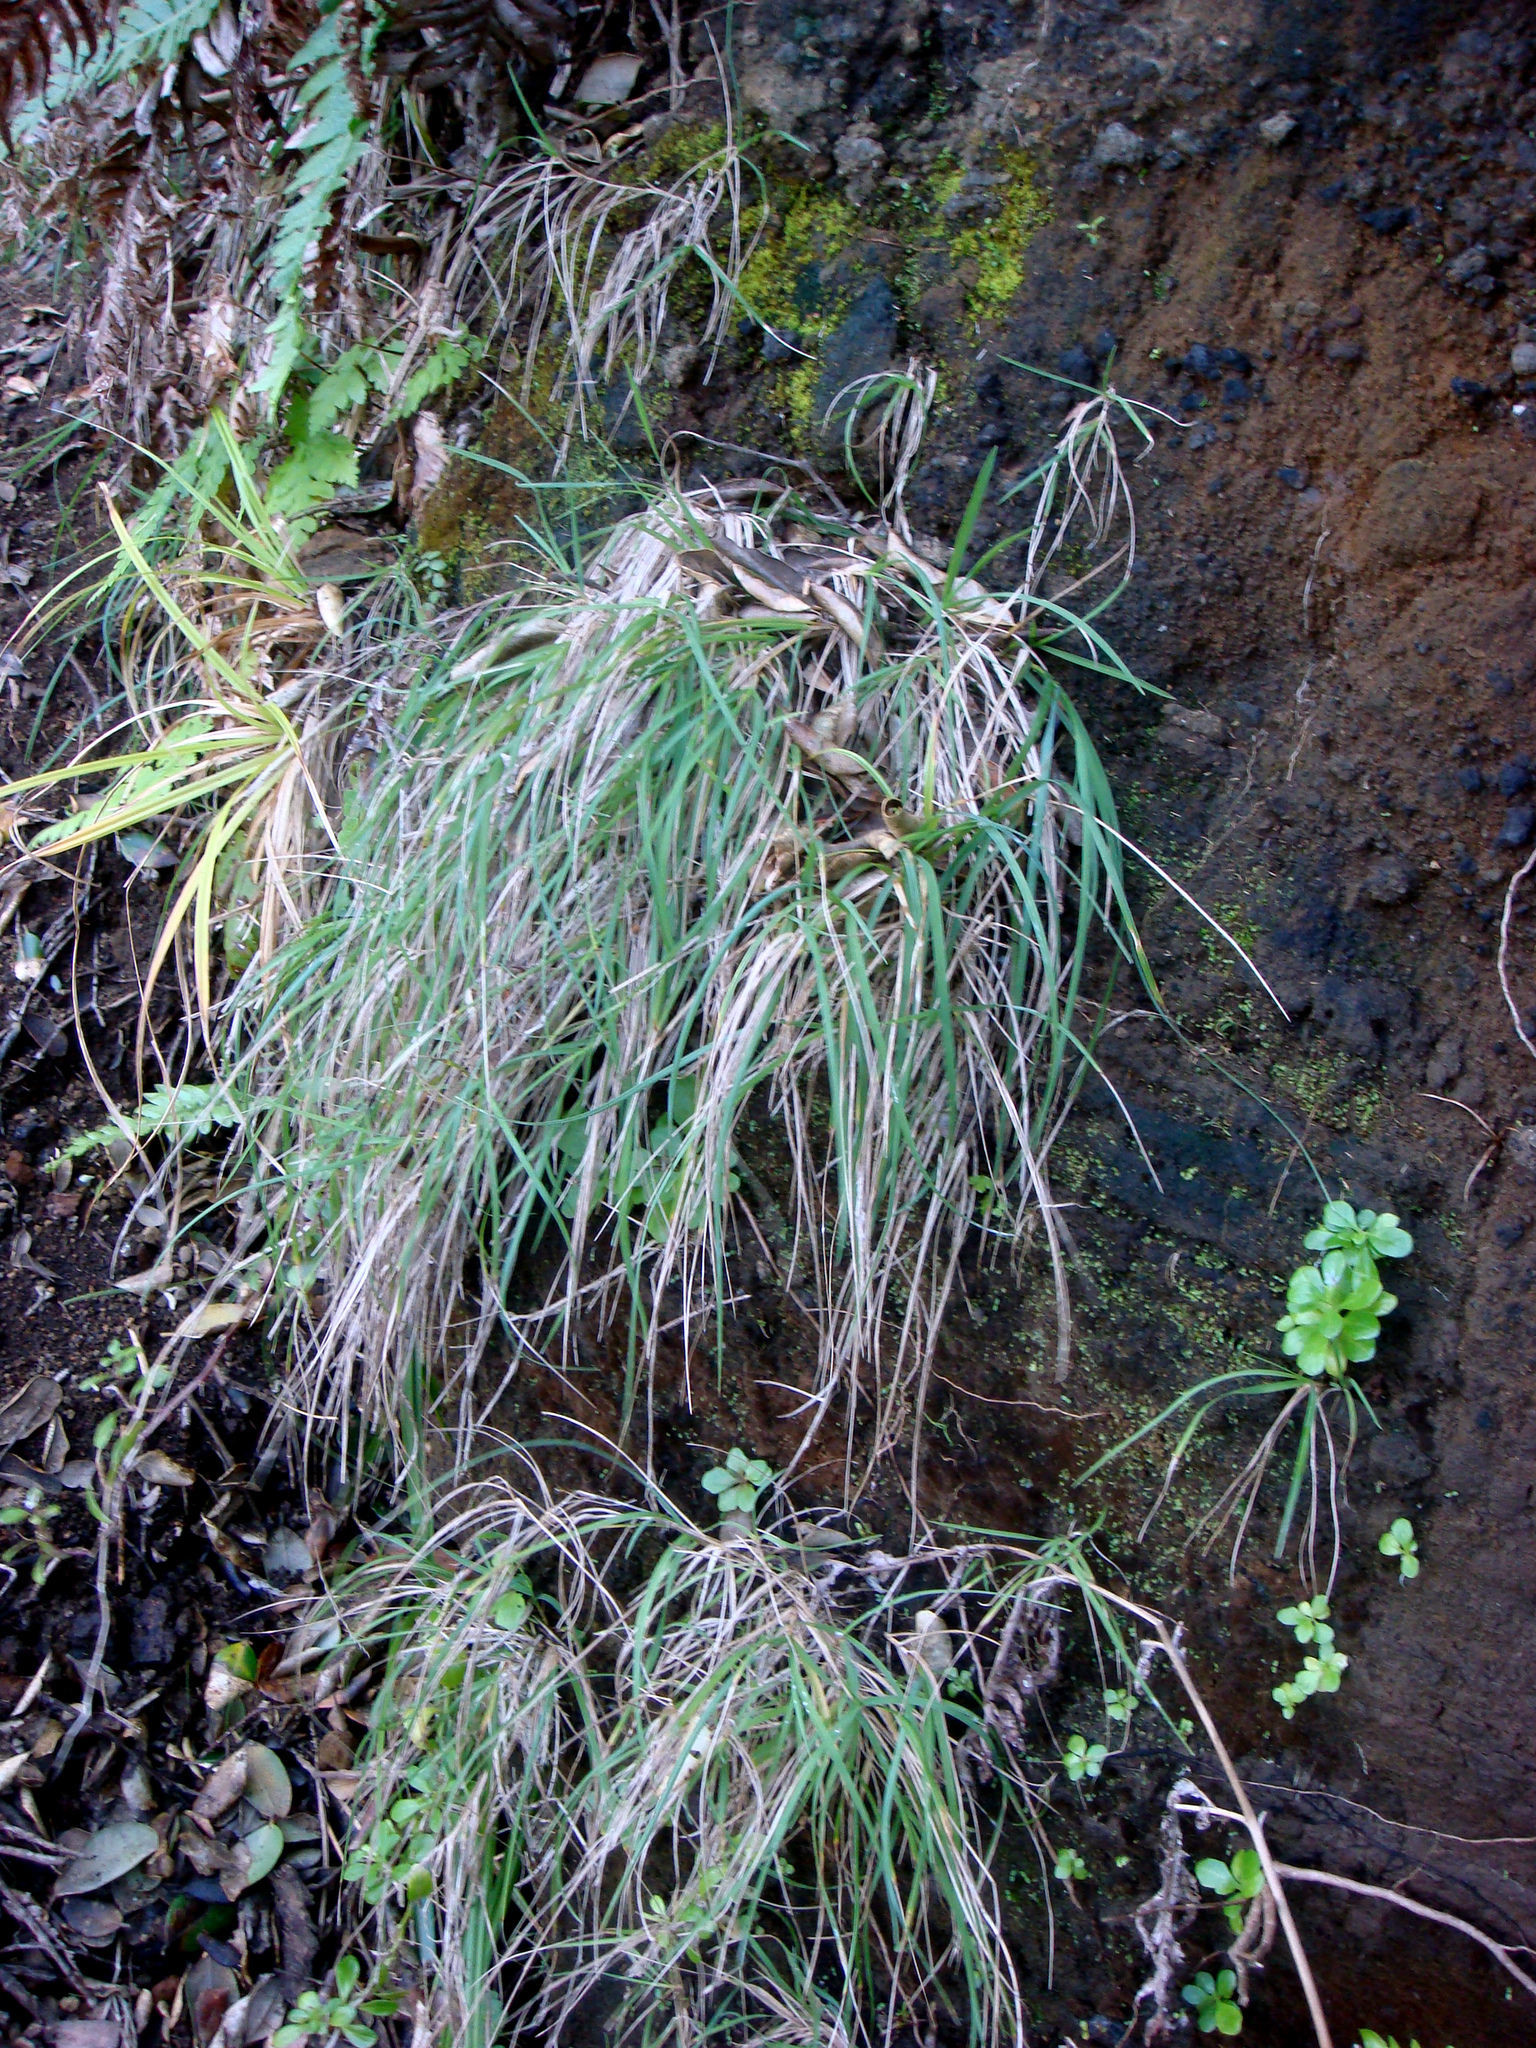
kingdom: Plantae
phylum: Tracheophyta
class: Liliopsida
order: Poales
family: Poaceae
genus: Poa
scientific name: Poa anceps
